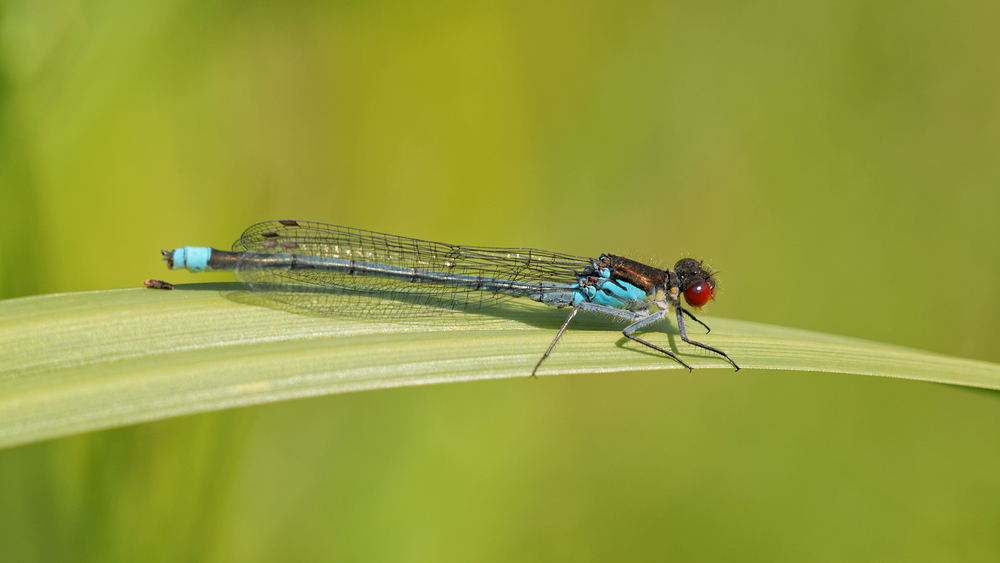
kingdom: Animalia
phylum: Arthropoda
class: Insecta
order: Odonata
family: Coenagrionidae
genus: Erythromma
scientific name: Erythromma najas
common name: Red-eyed damselfly
